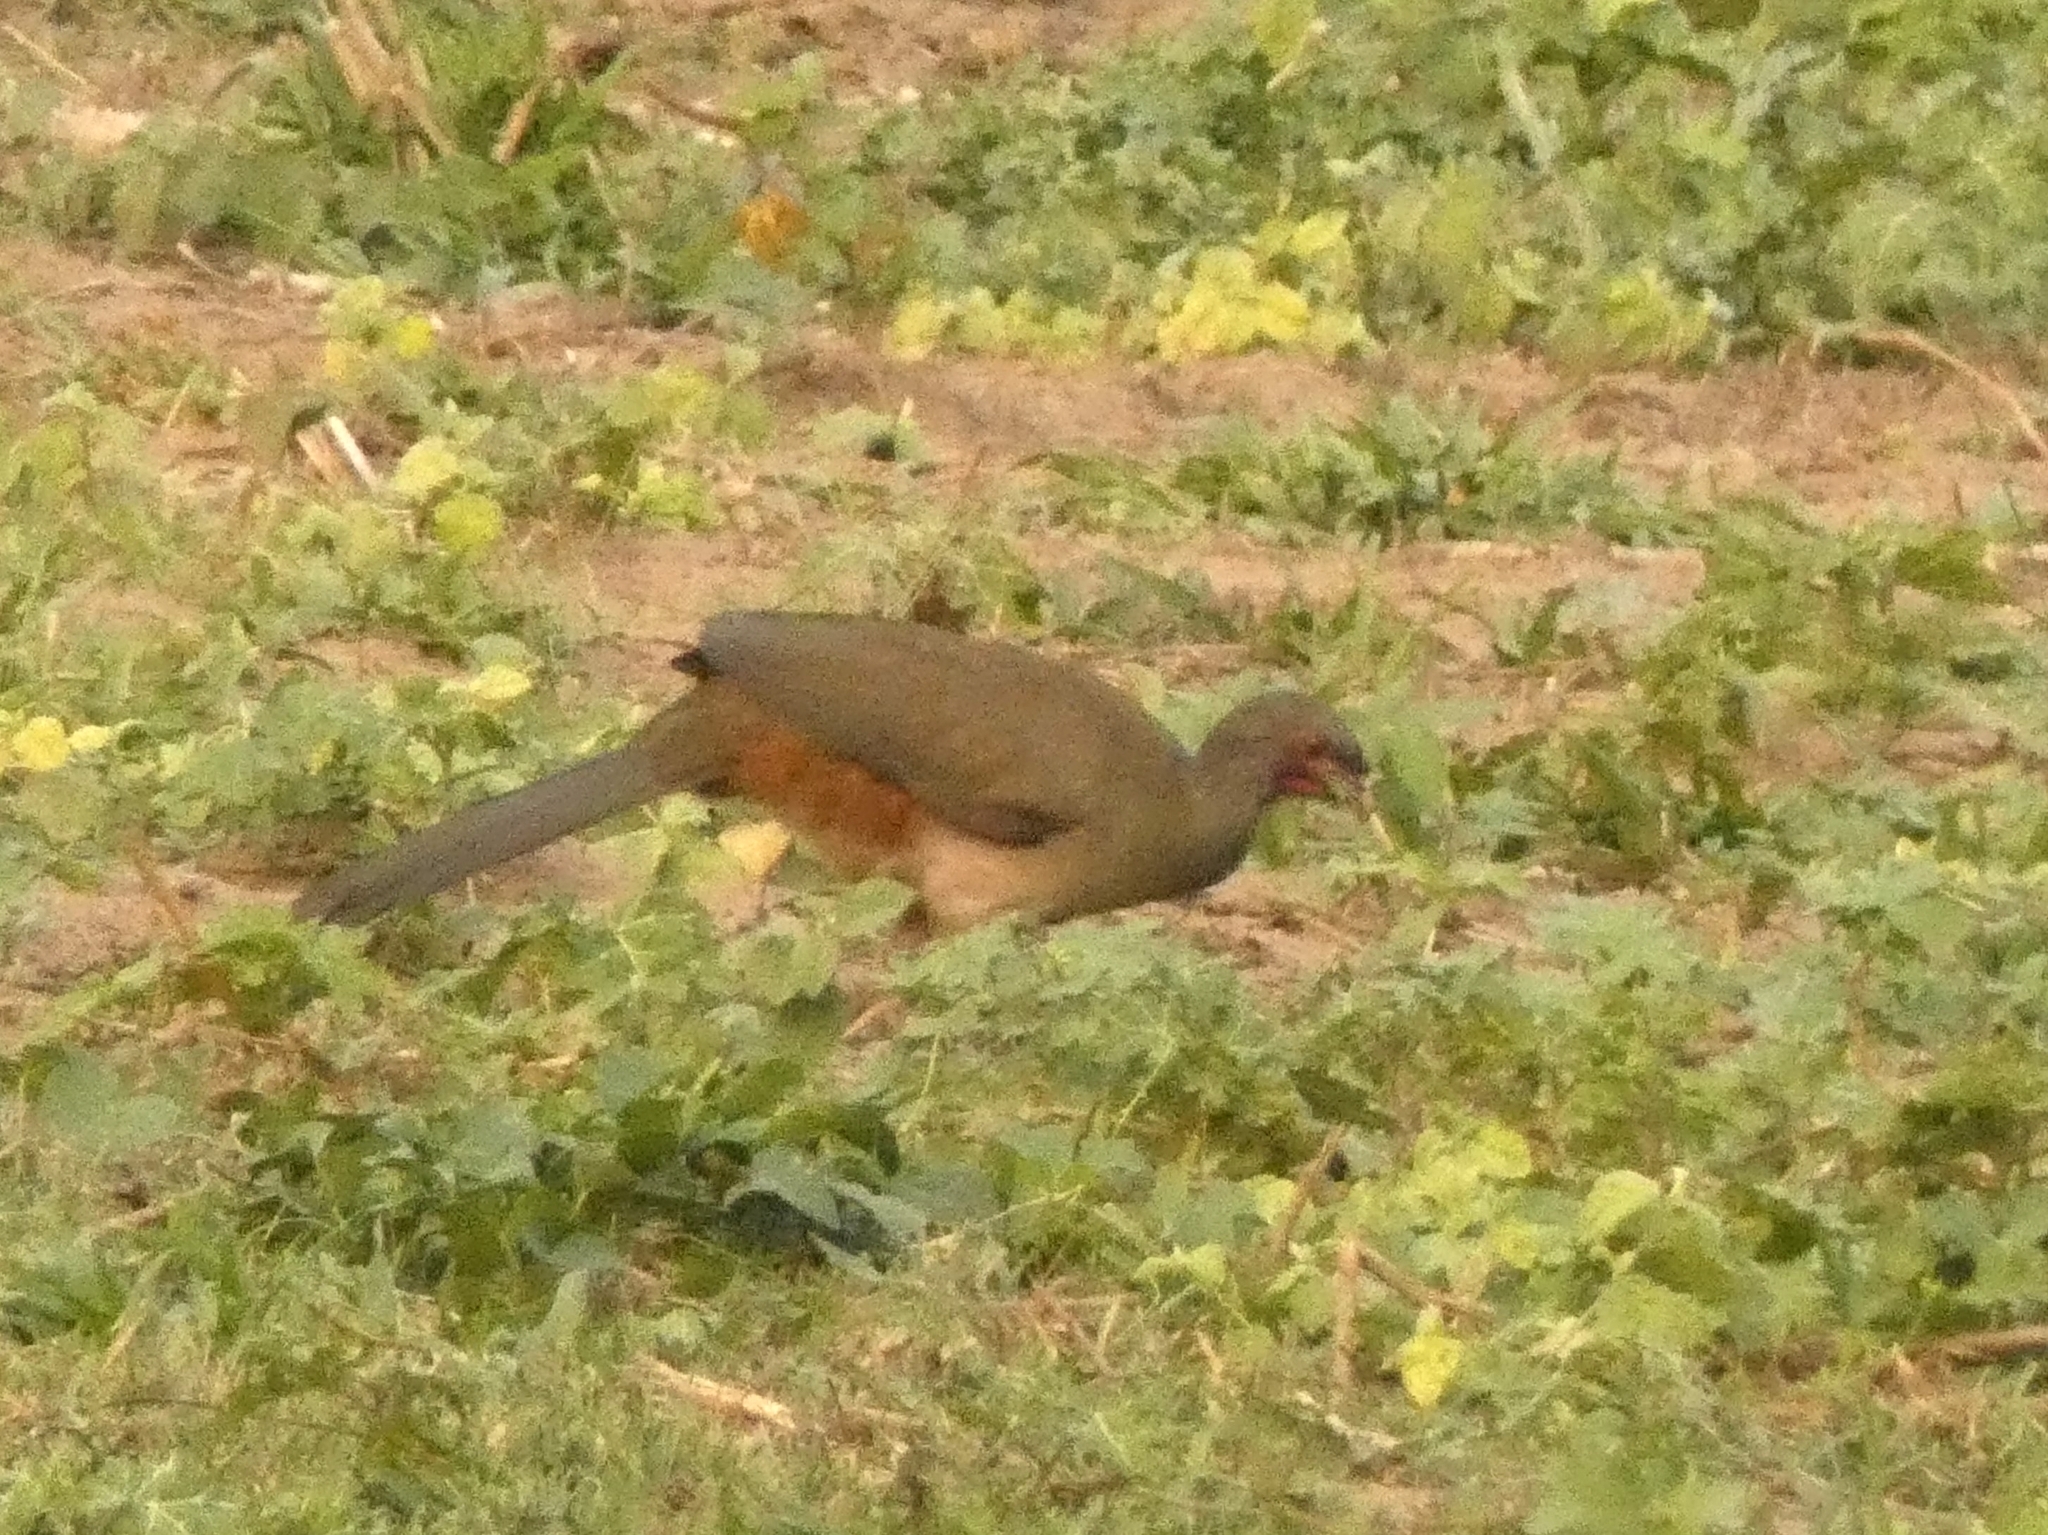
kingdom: Animalia
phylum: Chordata
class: Aves
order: Galliformes
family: Cracidae
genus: Ortalis
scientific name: Ortalis canicollis
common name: Chaco chachalaca
